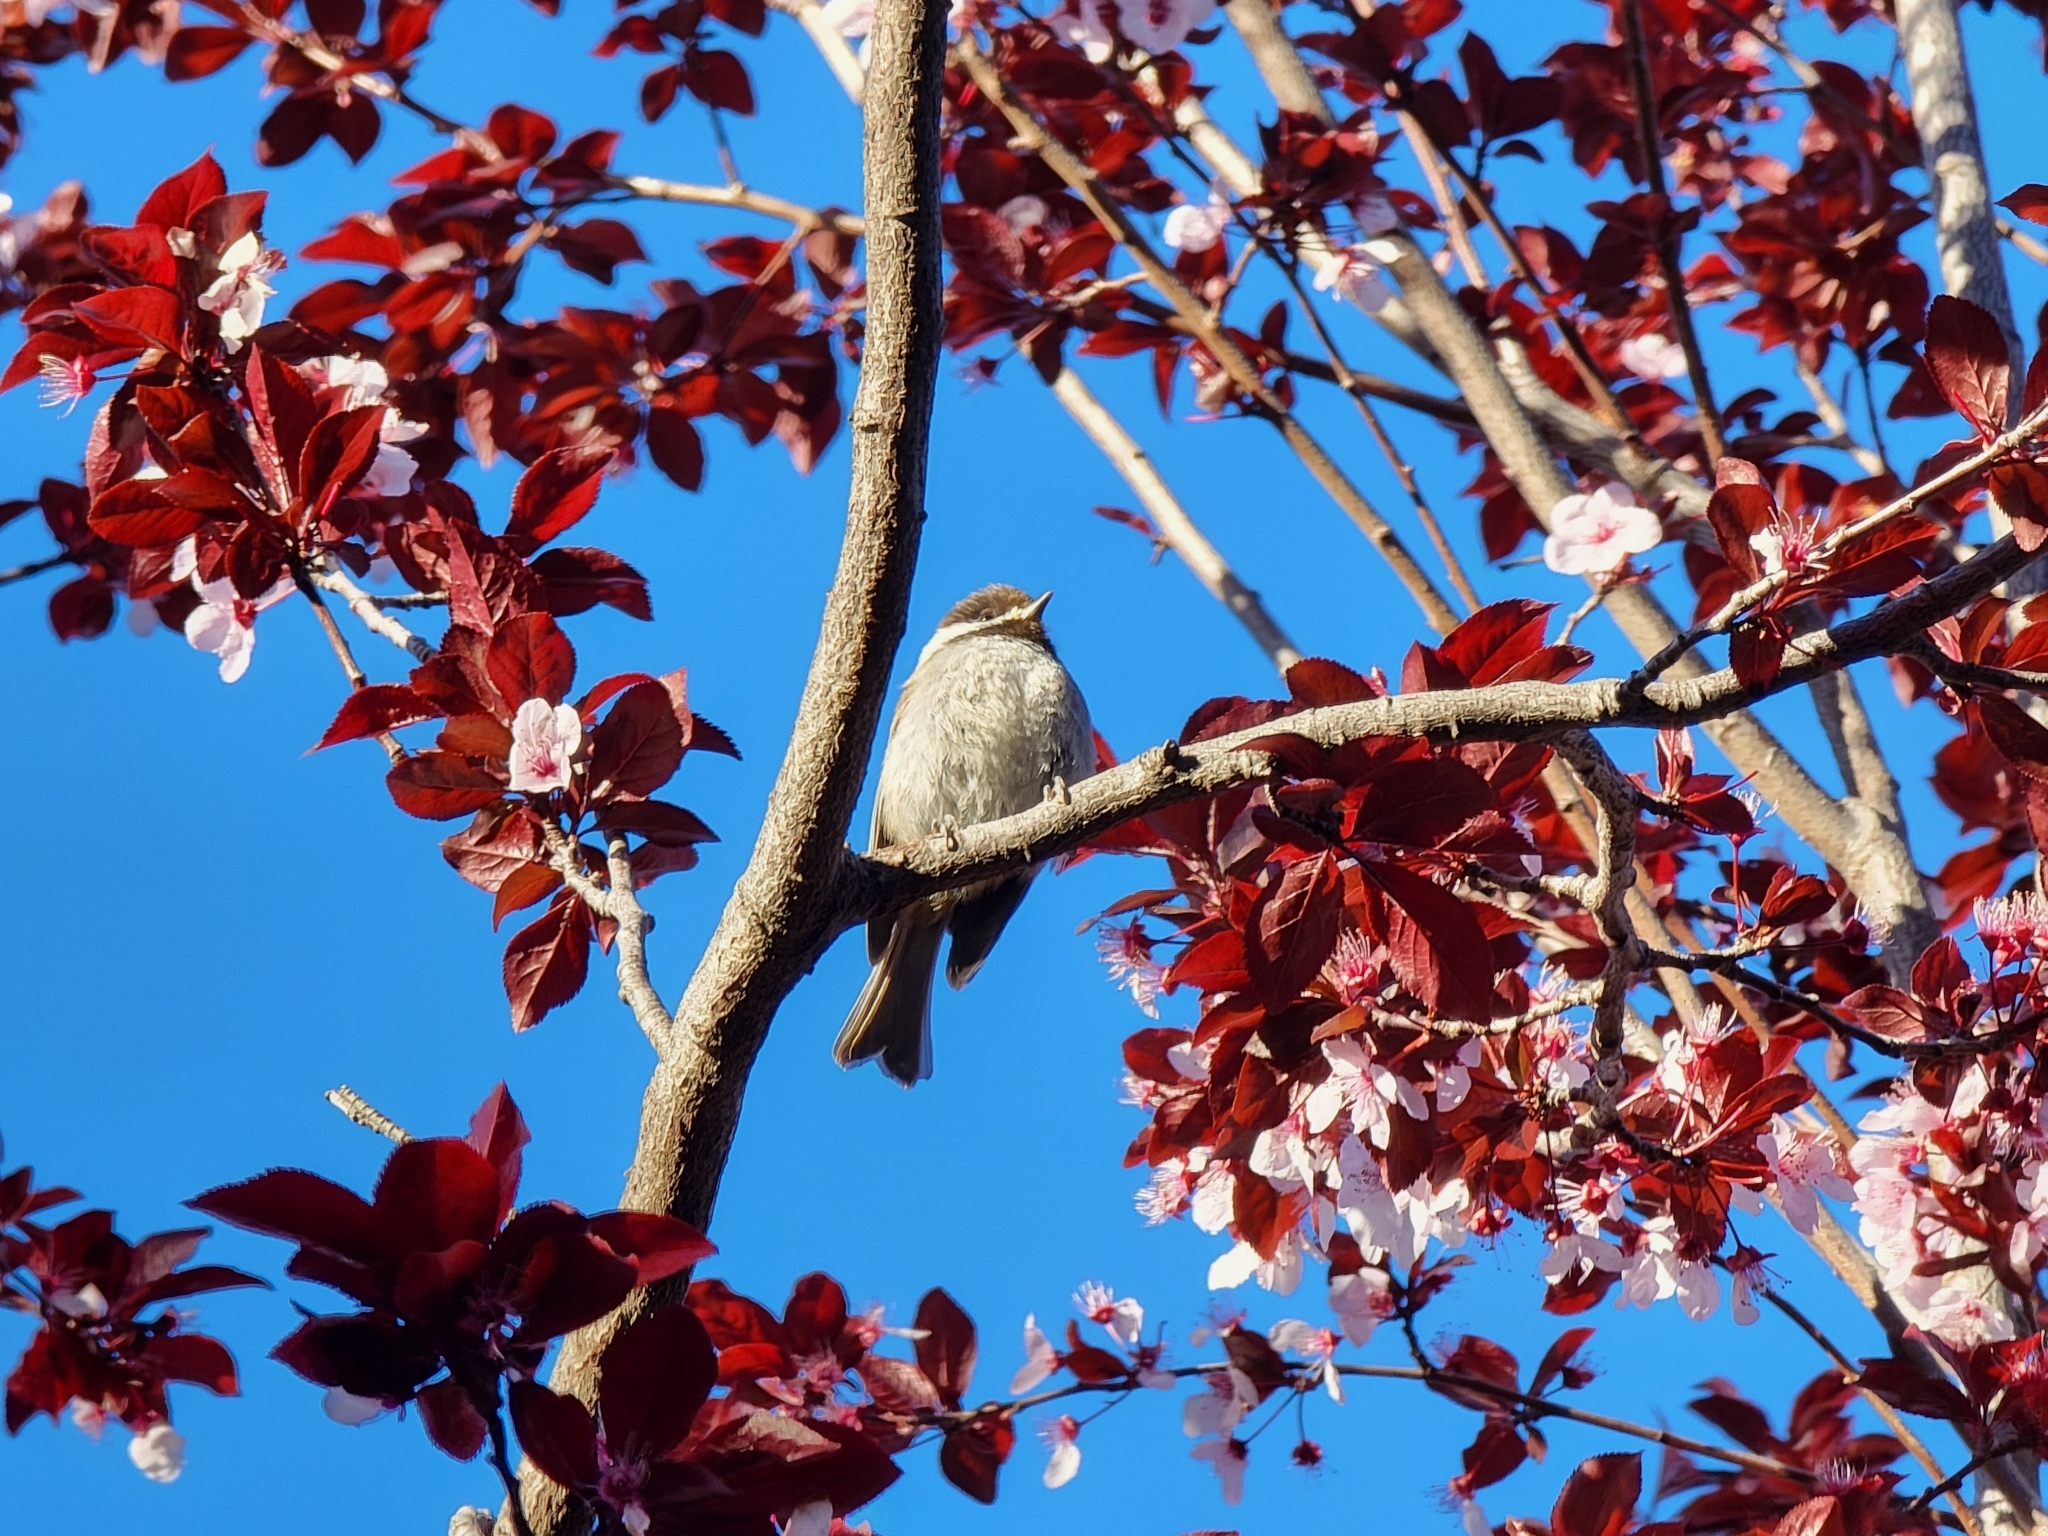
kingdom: Animalia
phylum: Chordata
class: Aves
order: Passeriformes
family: Paridae
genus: Poecile
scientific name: Poecile rufescens
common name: Chestnut-backed chickadee
